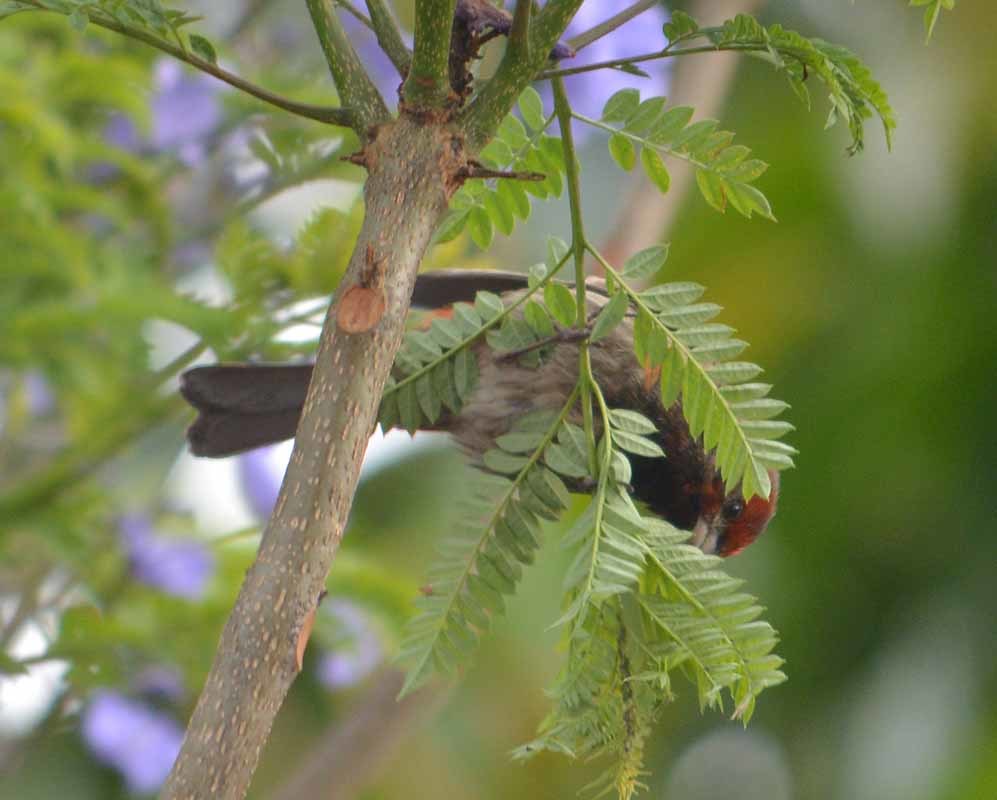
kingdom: Animalia
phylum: Chordata
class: Aves
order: Passeriformes
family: Fringillidae
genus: Haemorhous
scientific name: Haemorhous mexicanus
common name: House finch
